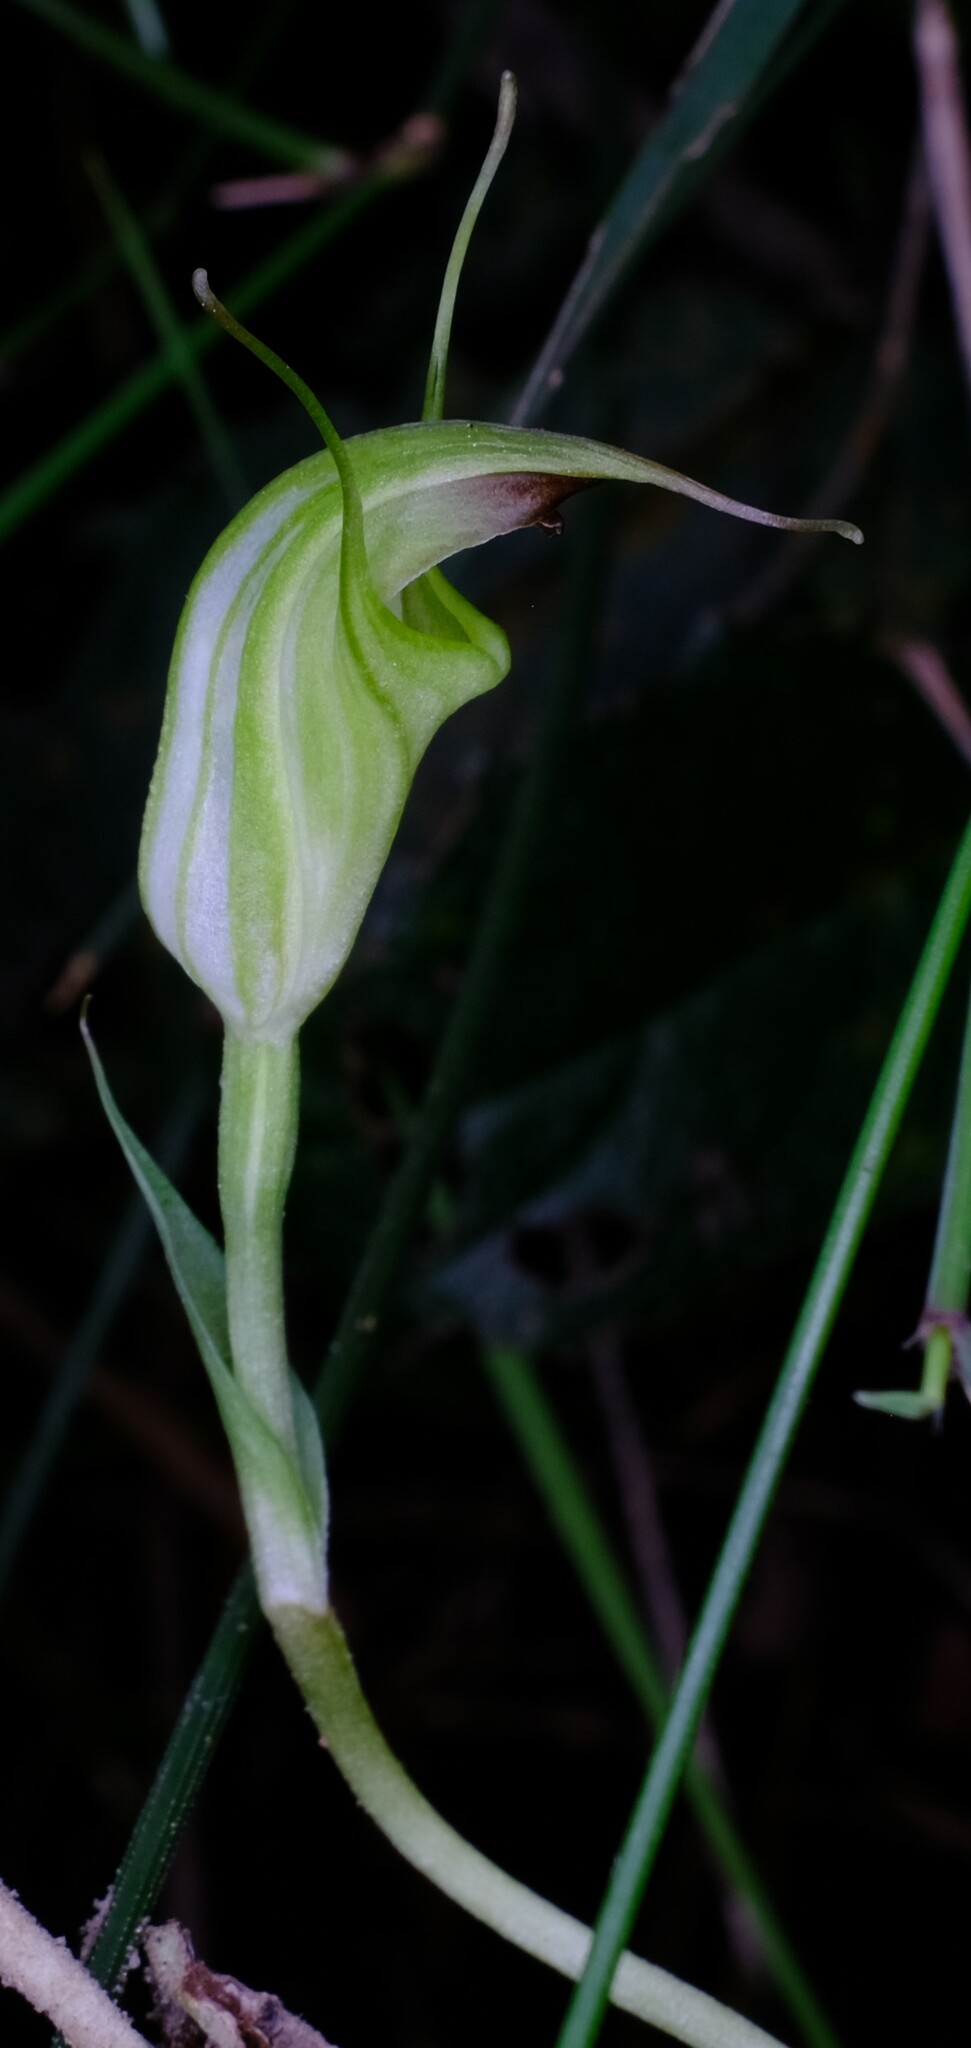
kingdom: Plantae
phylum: Tracheophyta
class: Liliopsida
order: Asparagales
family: Orchidaceae
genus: Pterostylis
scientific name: Pterostylis atrans
